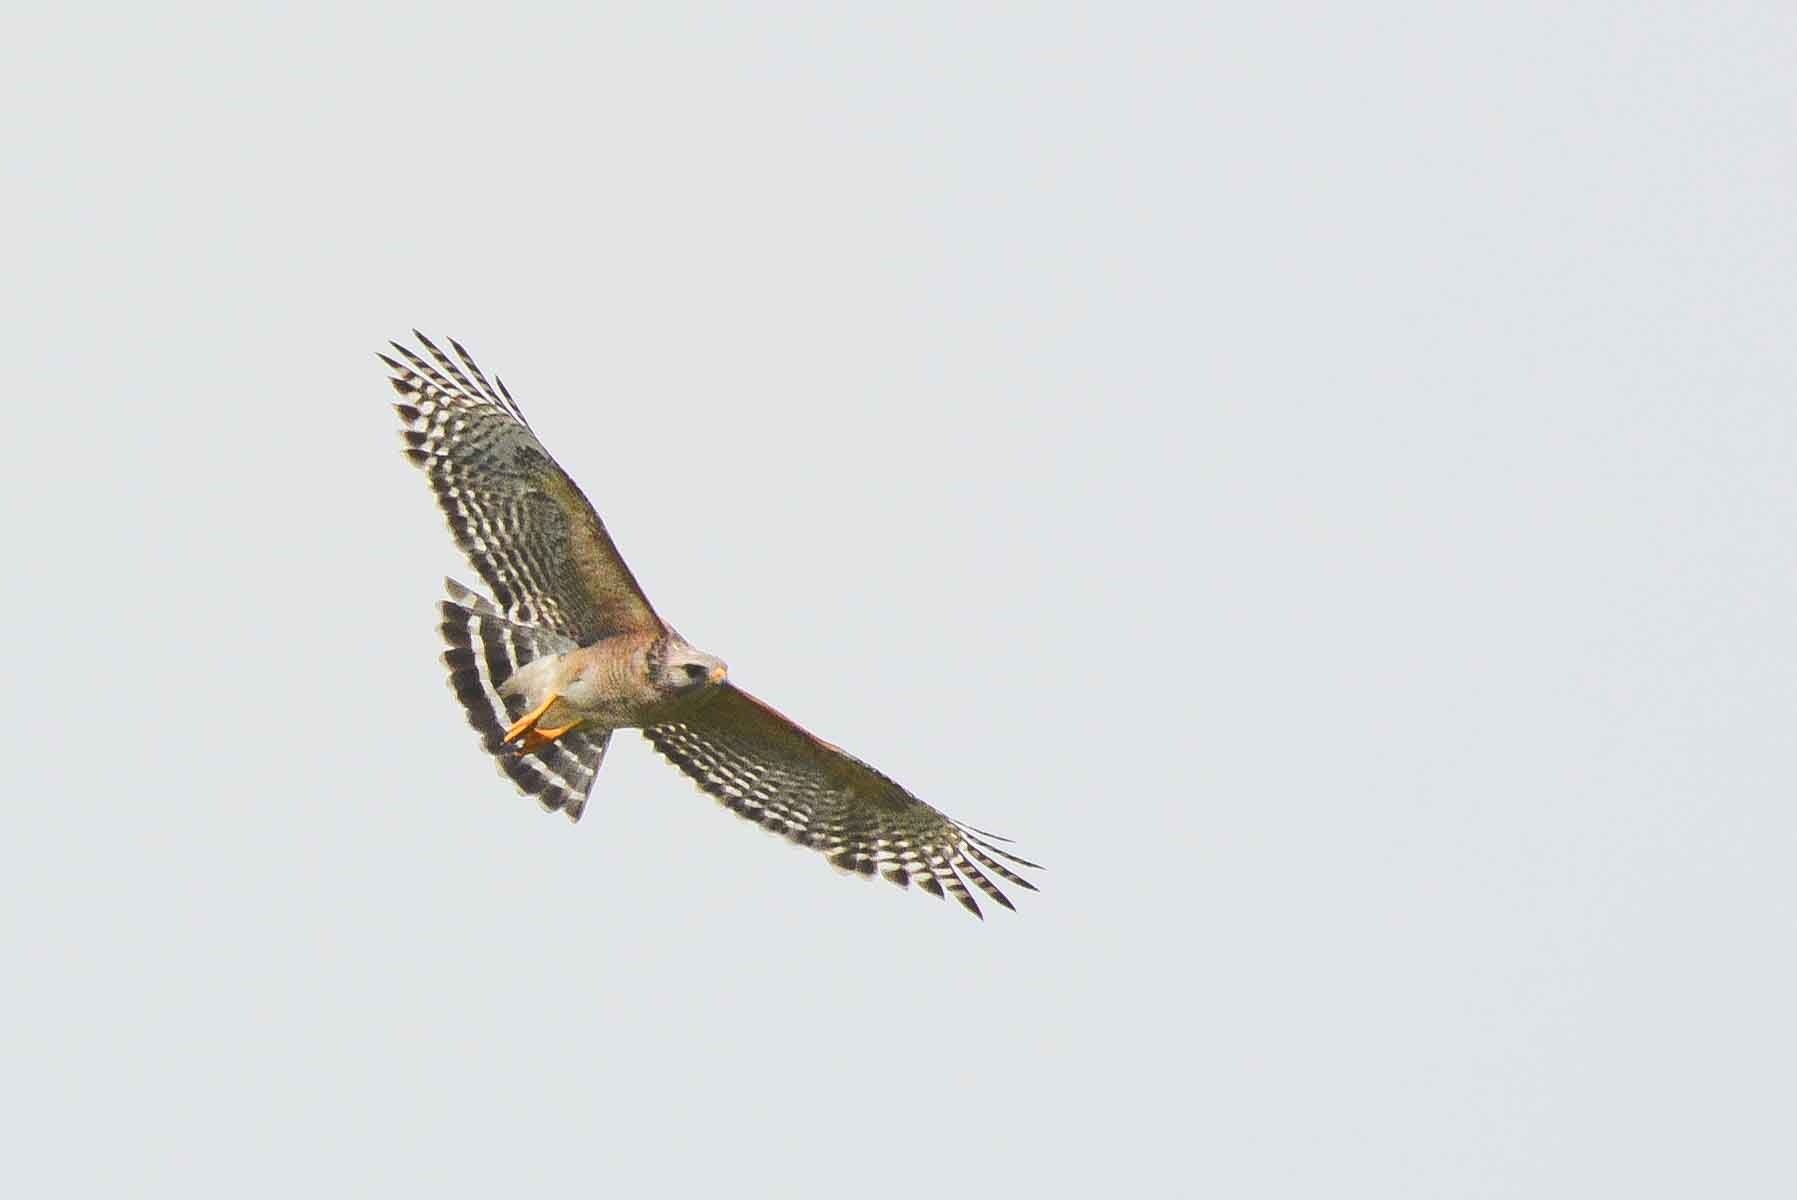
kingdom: Animalia
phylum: Chordata
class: Aves
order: Accipitriformes
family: Accipitridae
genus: Buteo
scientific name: Buteo lineatus
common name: Red-shouldered hawk
